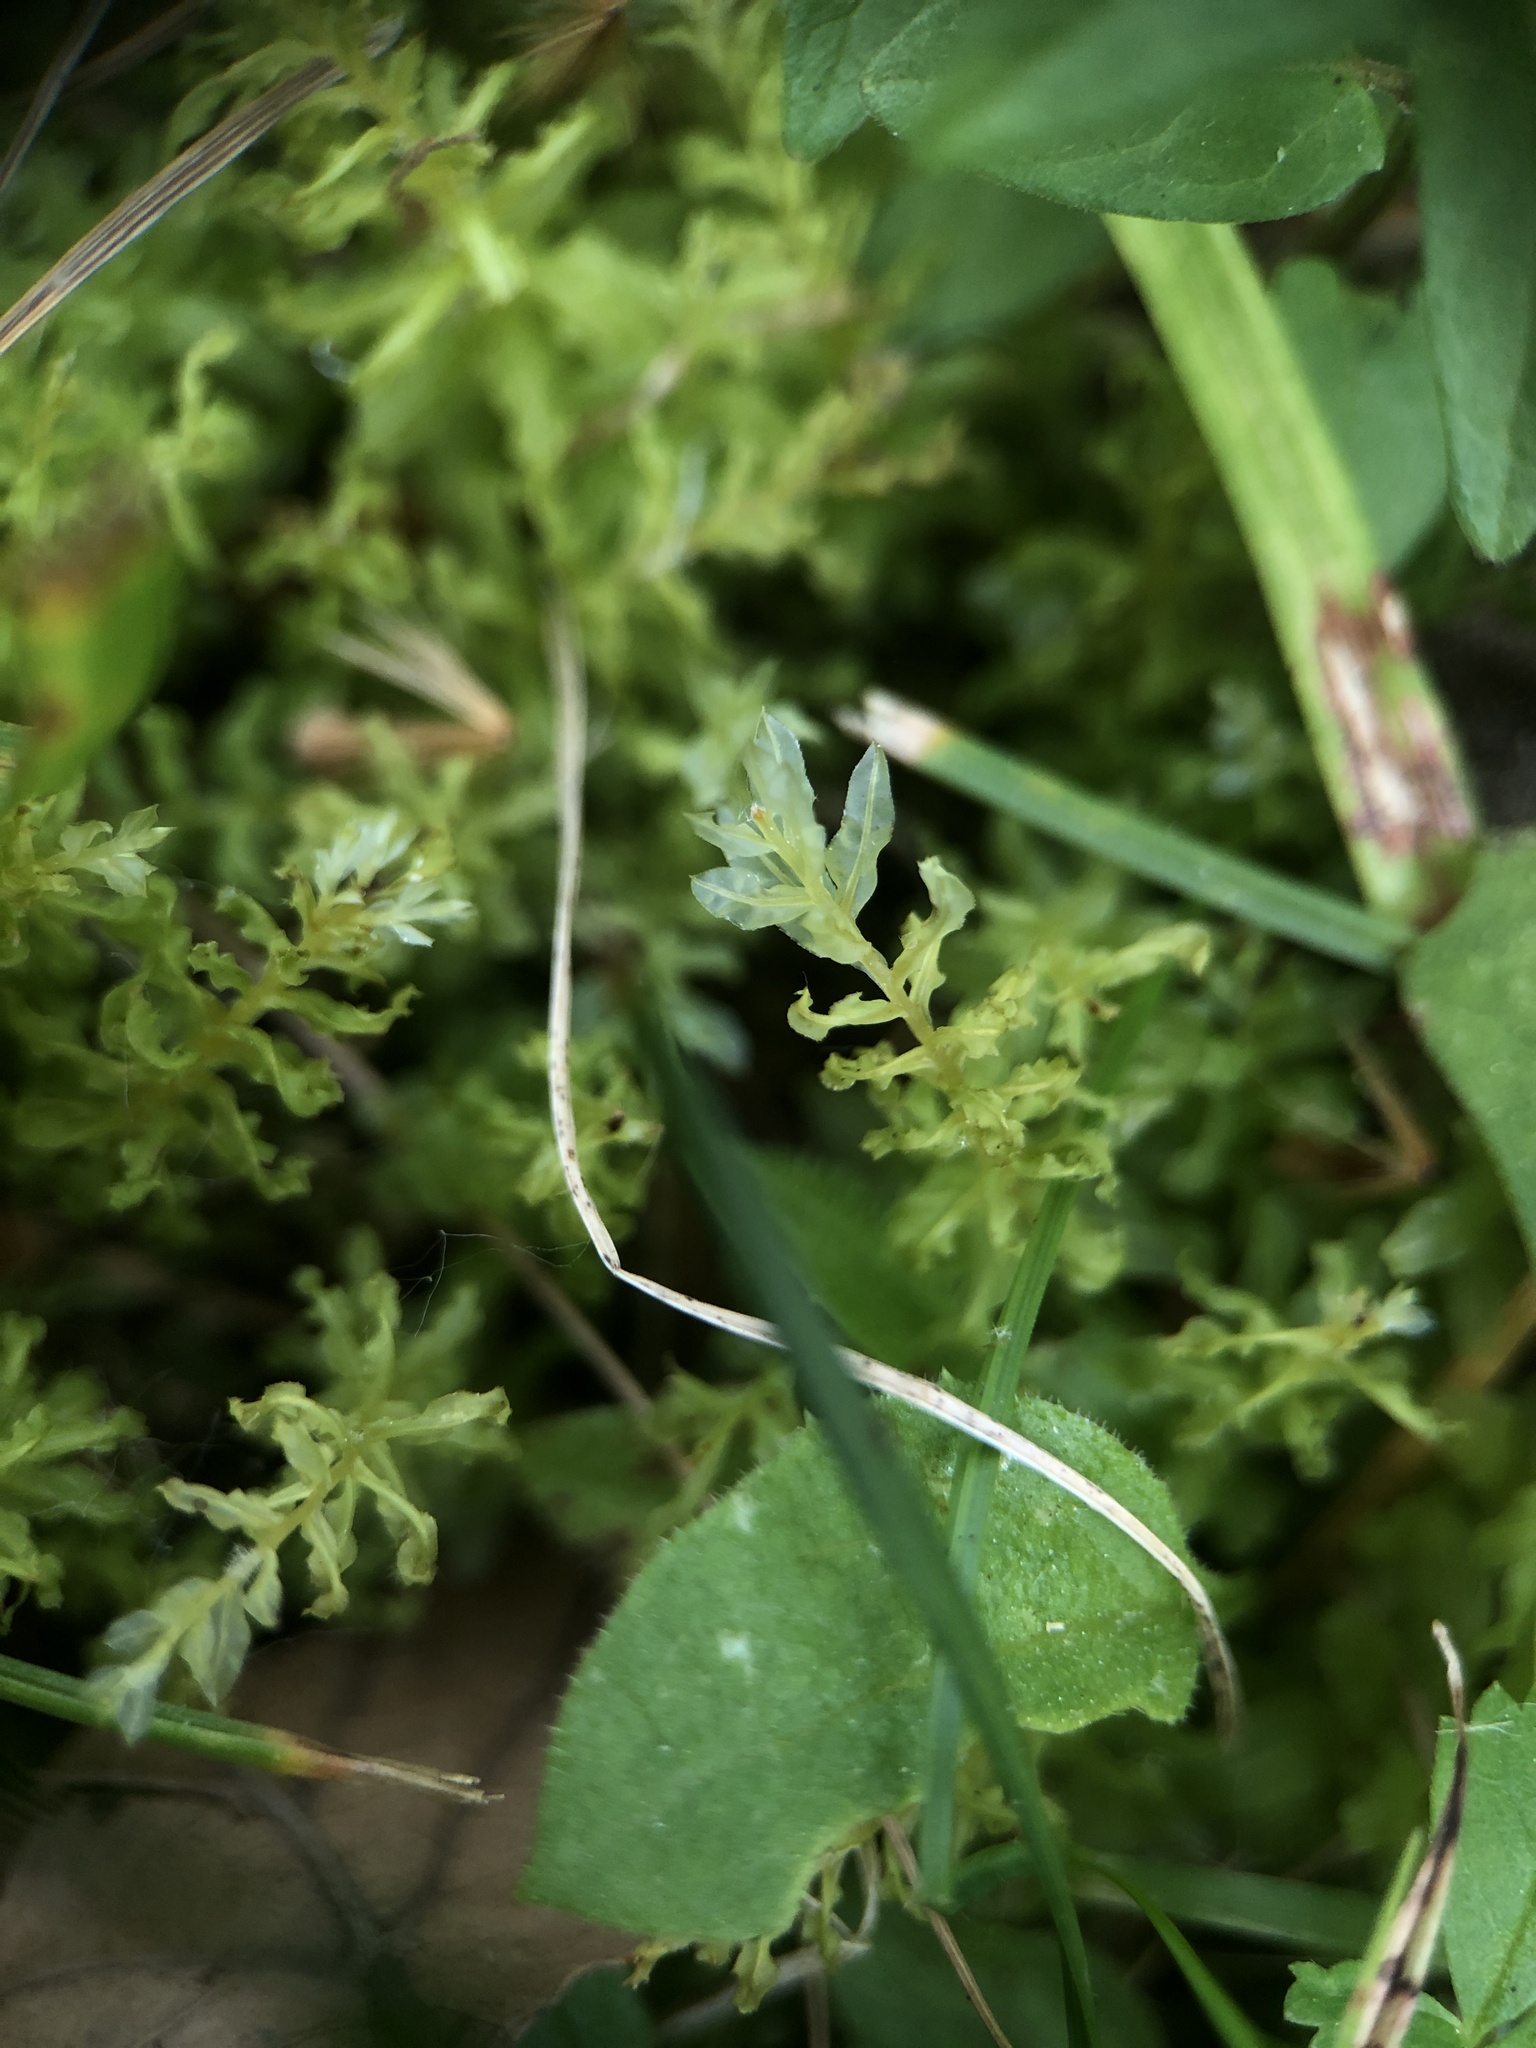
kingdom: Plantae
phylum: Bryophyta
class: Bryopsida
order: Bryales
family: Mniaceae
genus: Plagiomnium
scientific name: Plagiomnium undulatum
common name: Hart's-tongue thyme-moss
